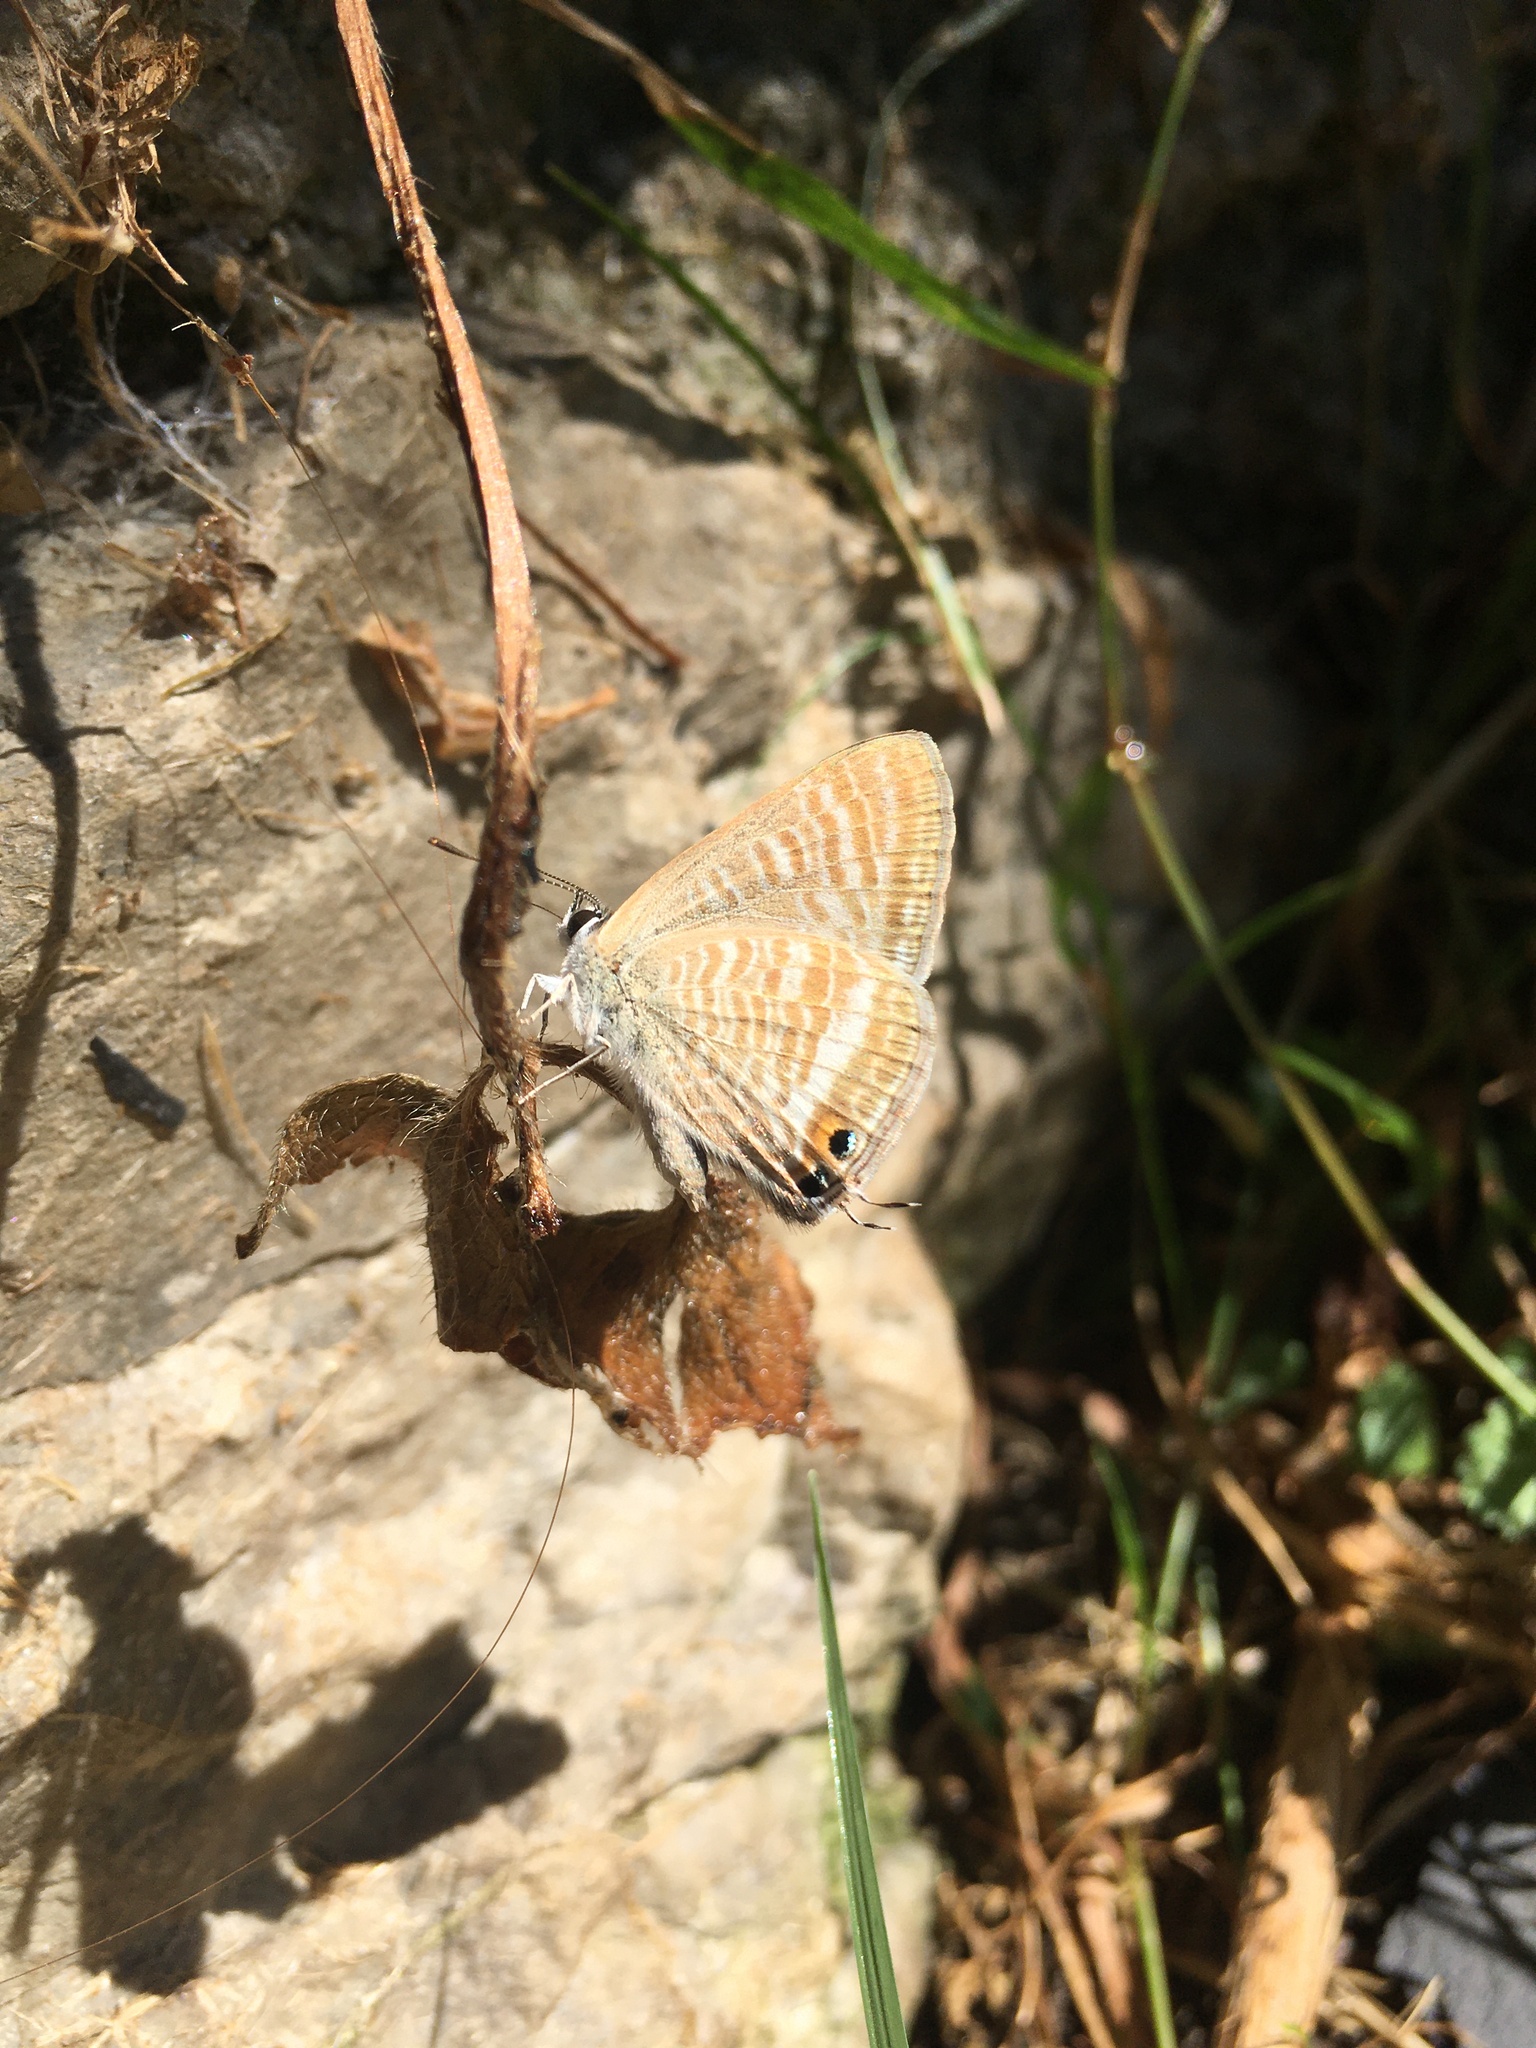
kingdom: Animalia
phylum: Arthropoda
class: Insecta
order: Lepidoptera
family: Lycaenidae
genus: Lampides
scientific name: Lampides boeticus
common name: Long-tailed blue
